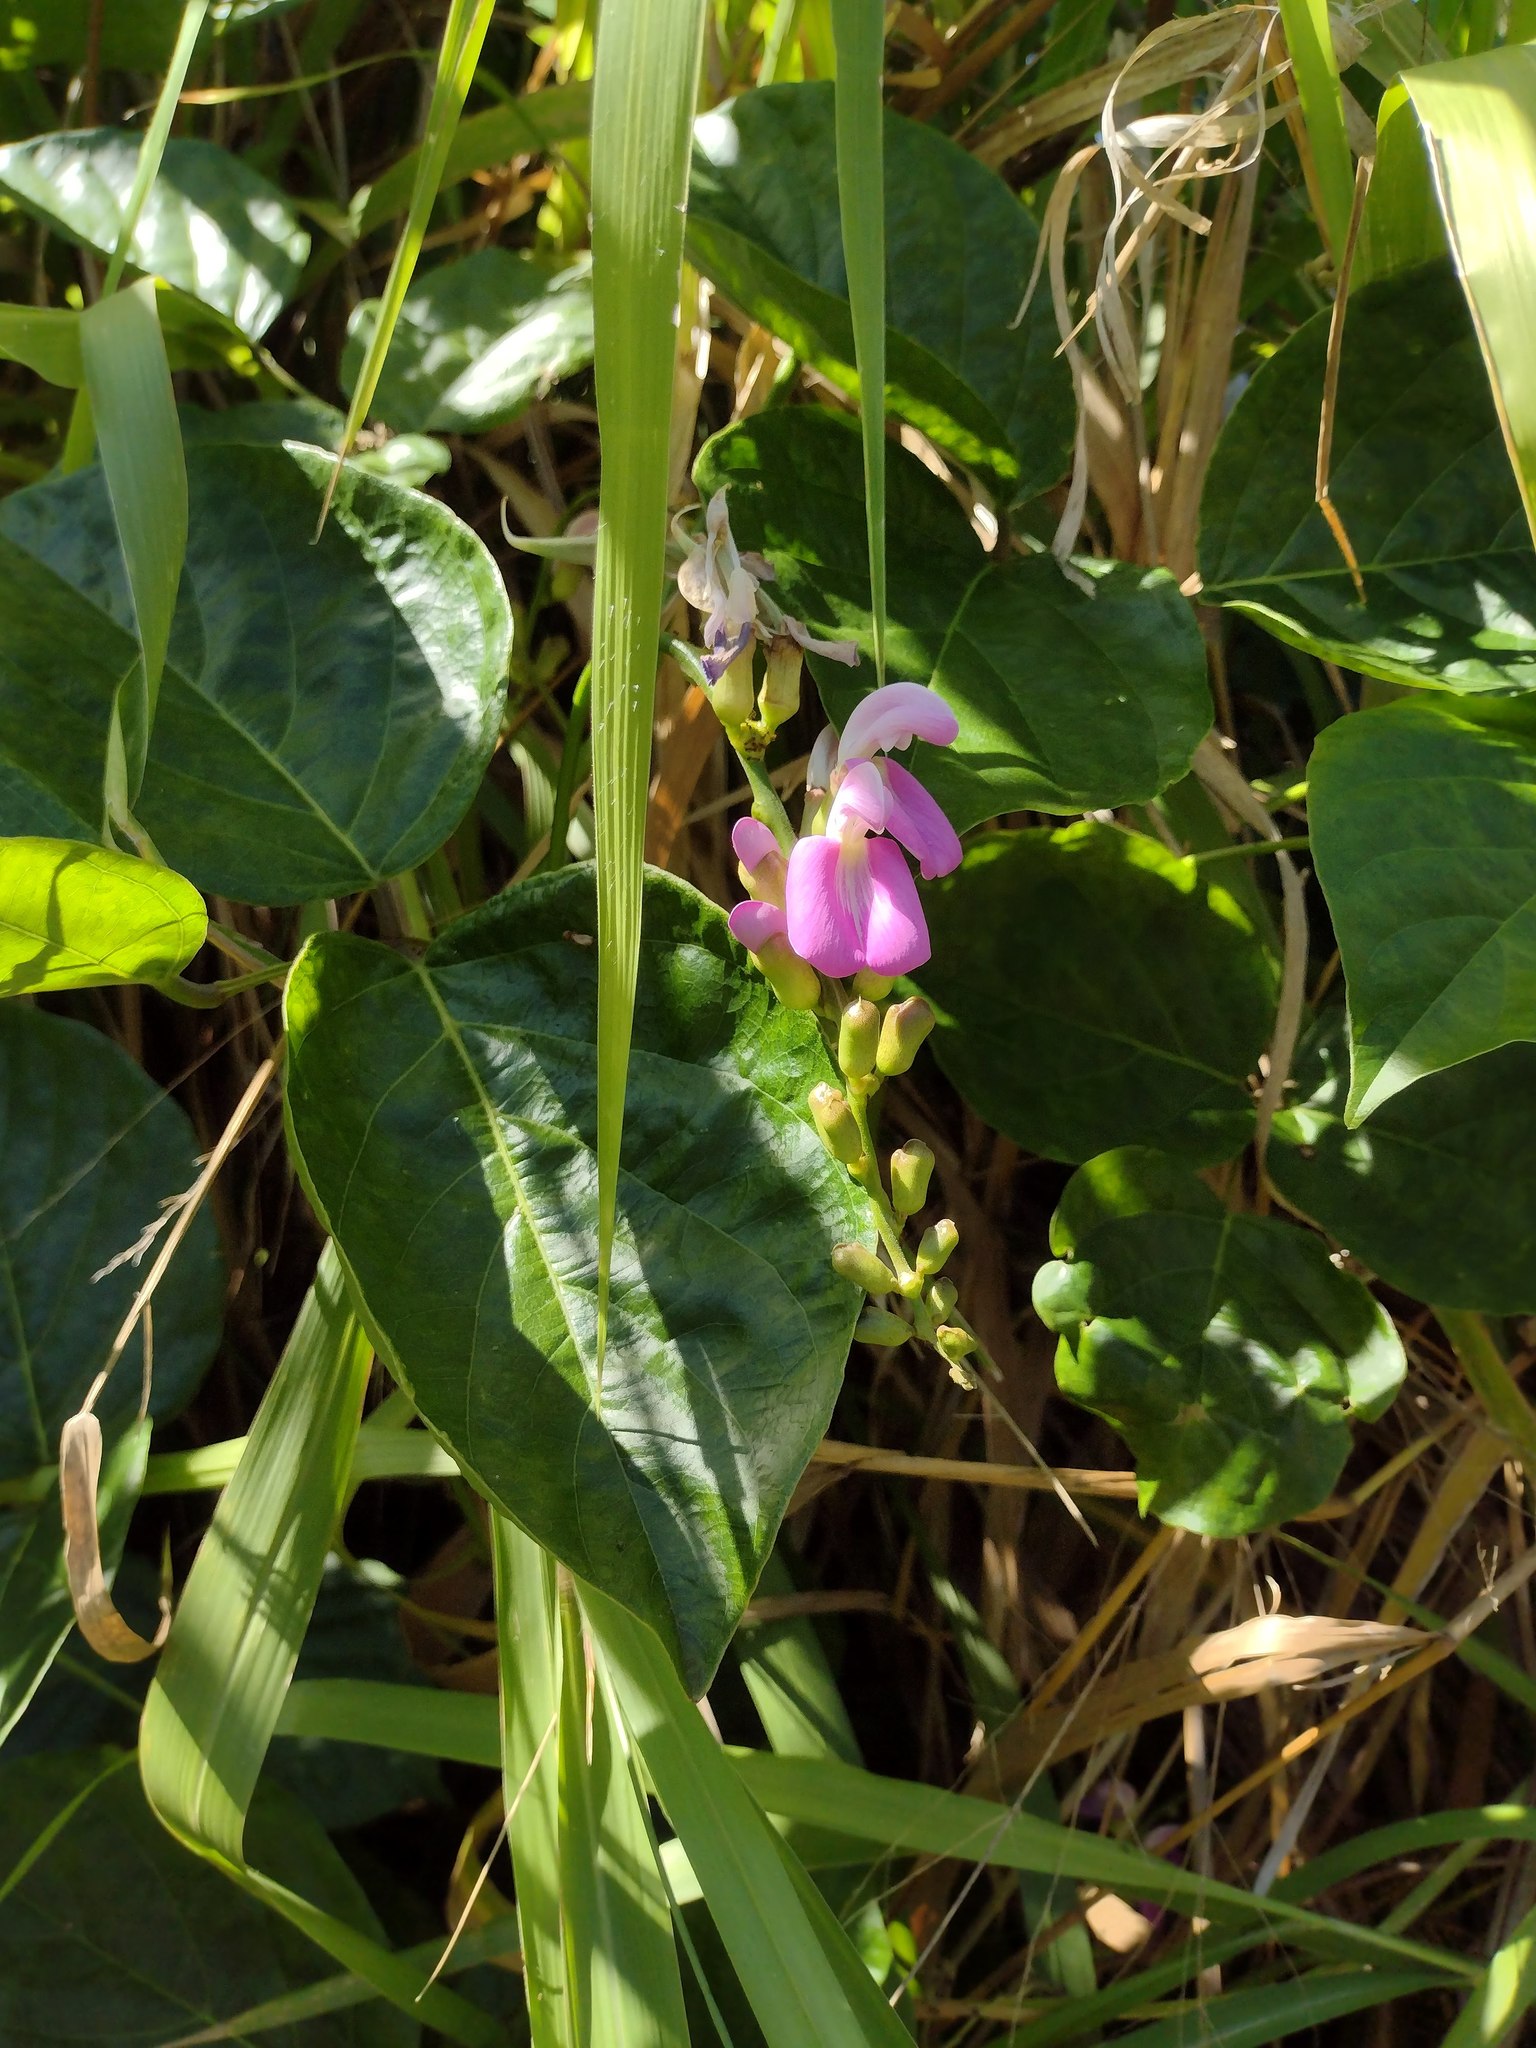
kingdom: Plantae
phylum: Tracheophyta
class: Magnoliopsida
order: Fabales
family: Fabaceae
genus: Canavalia
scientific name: Canavalia cathartica
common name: Maunaloa
